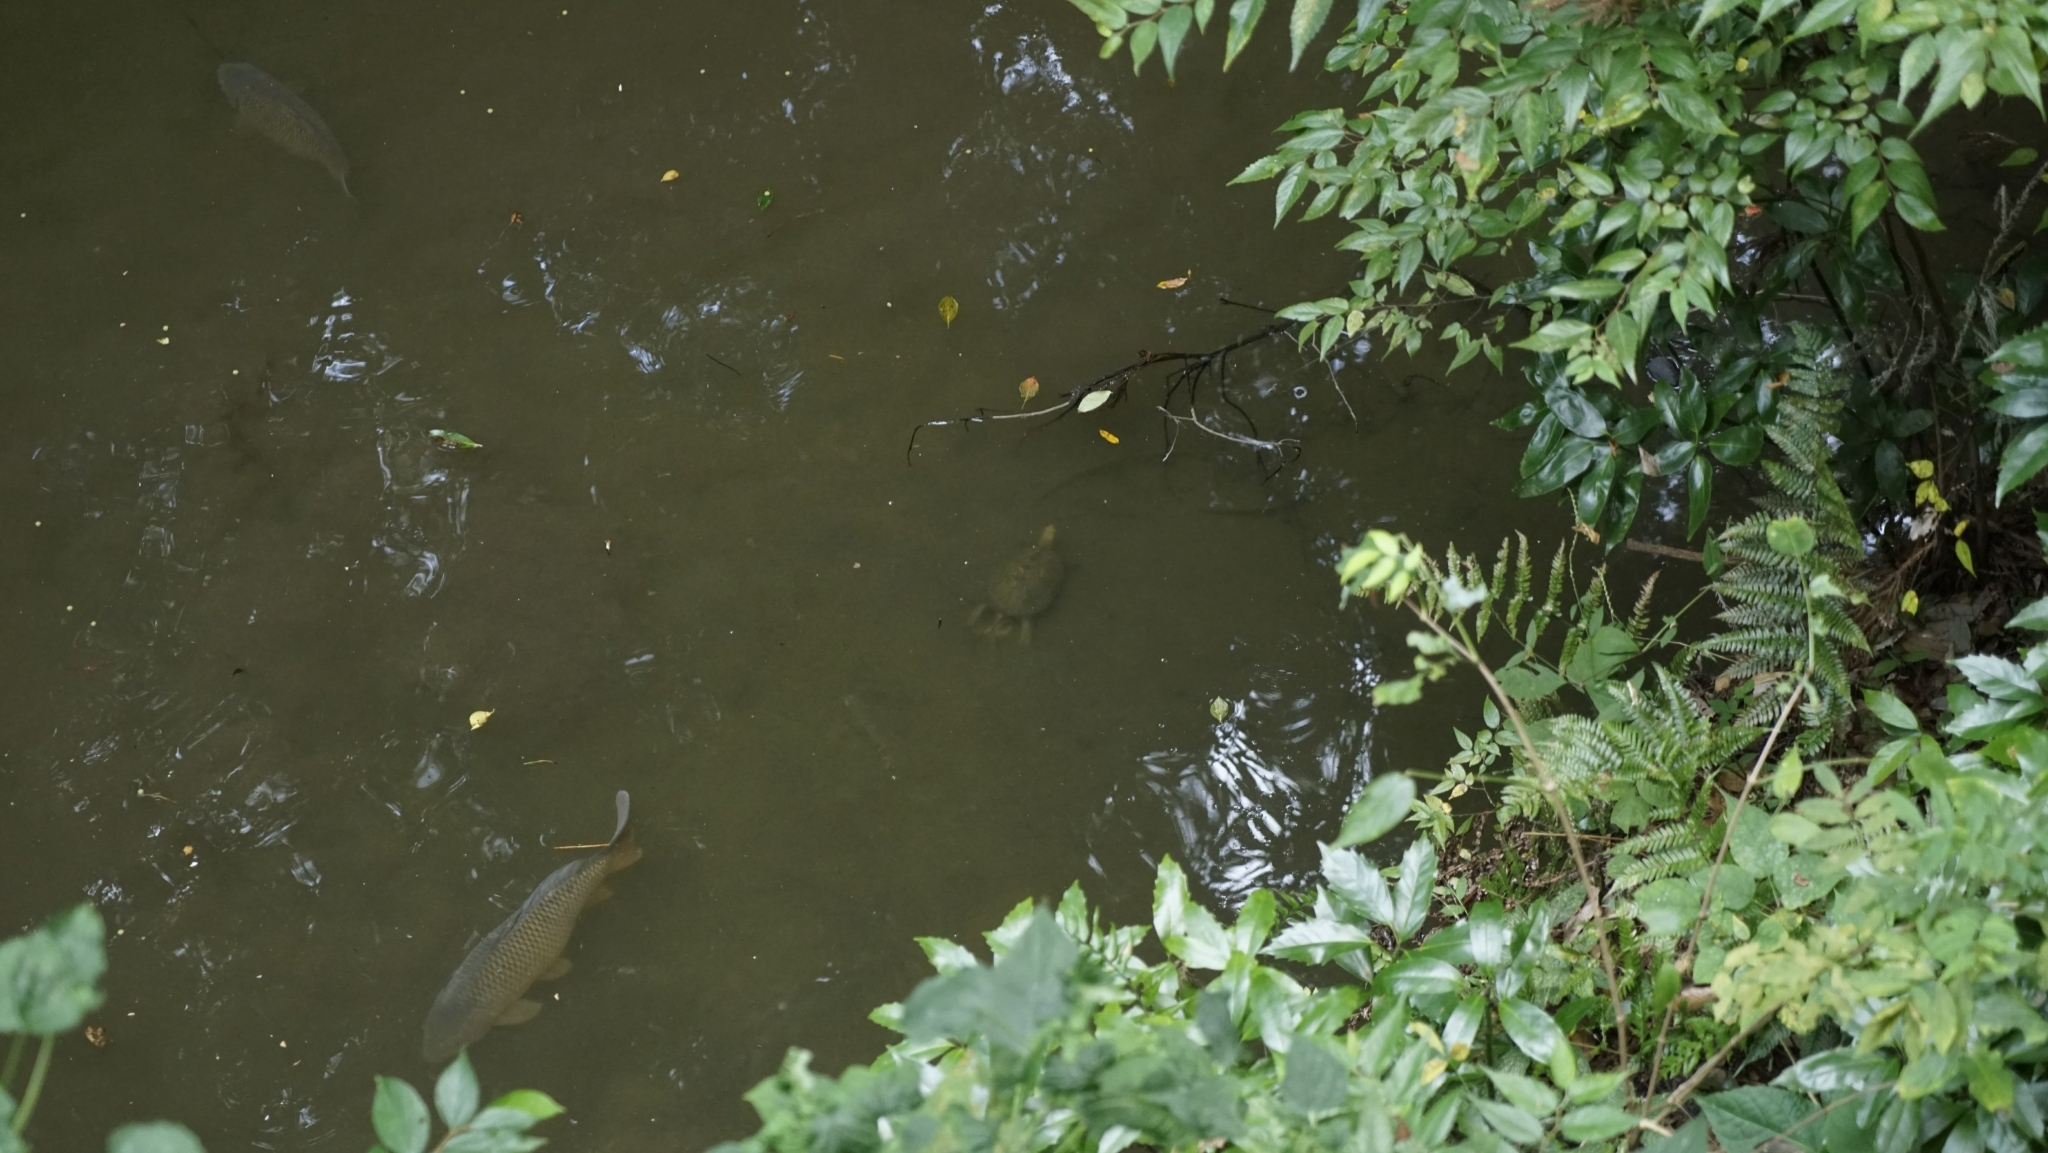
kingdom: Animalia
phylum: Chordata
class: Testudines
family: Geoemydidae
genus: Mauremys
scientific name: Mauremys japonica
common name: Japanese pond turtle
